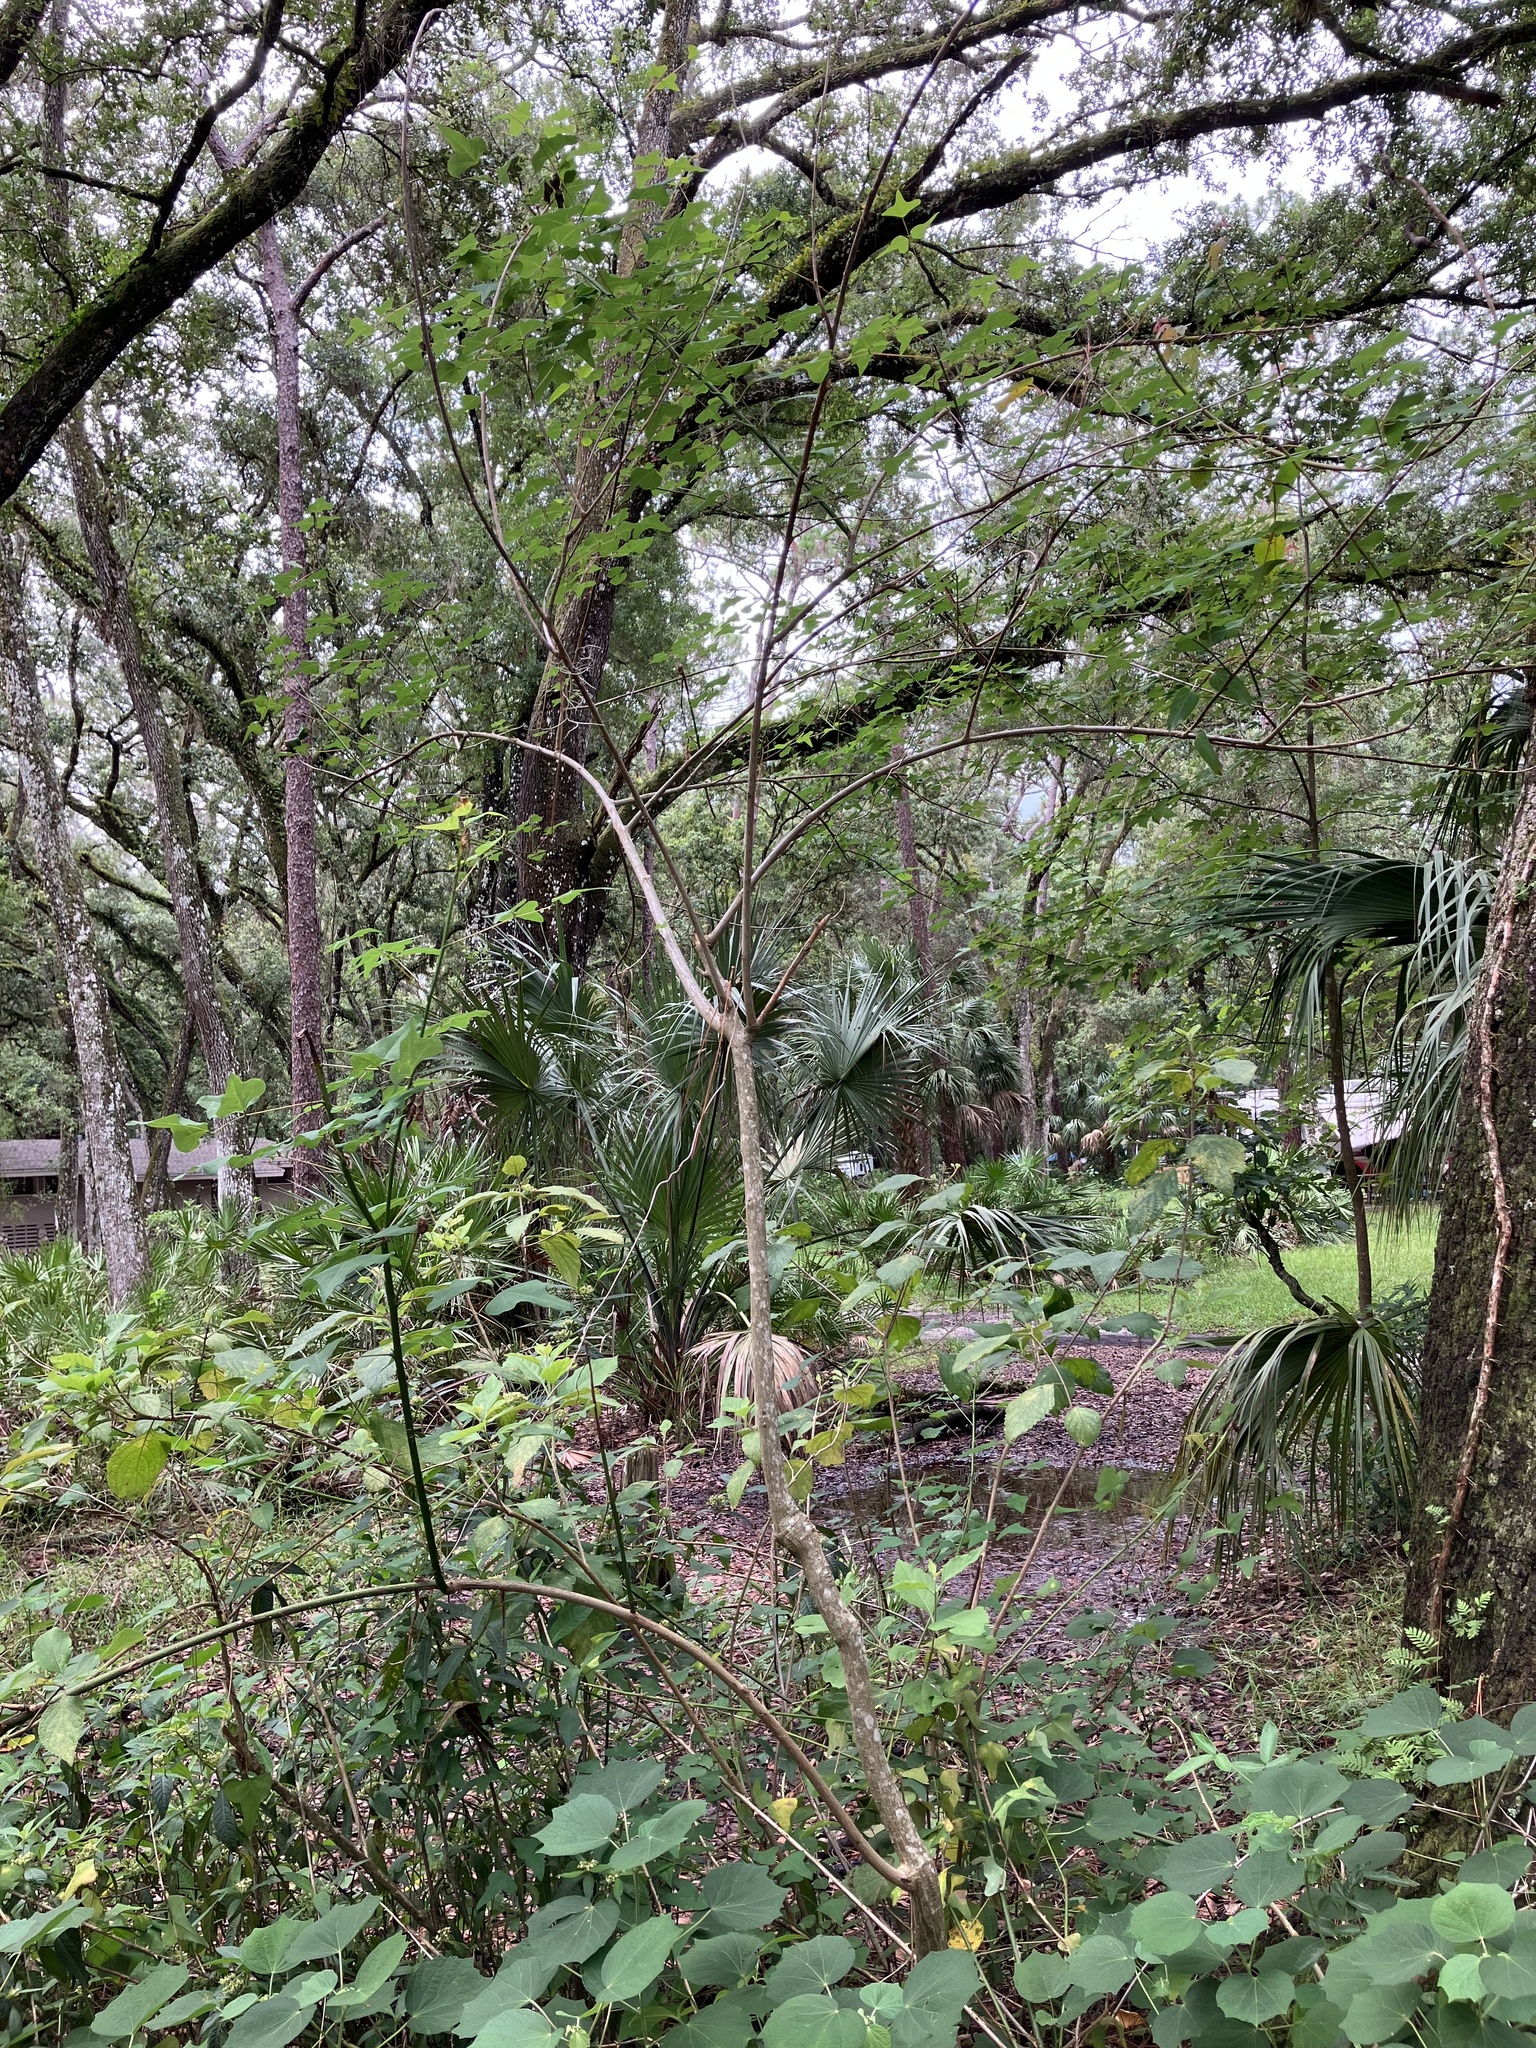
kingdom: Plantae
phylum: Tracheophyta
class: Magnoliopsida
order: Fabales
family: Fabaceae
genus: Erythrina
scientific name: Erythrina herbacea
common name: Coral-bean
